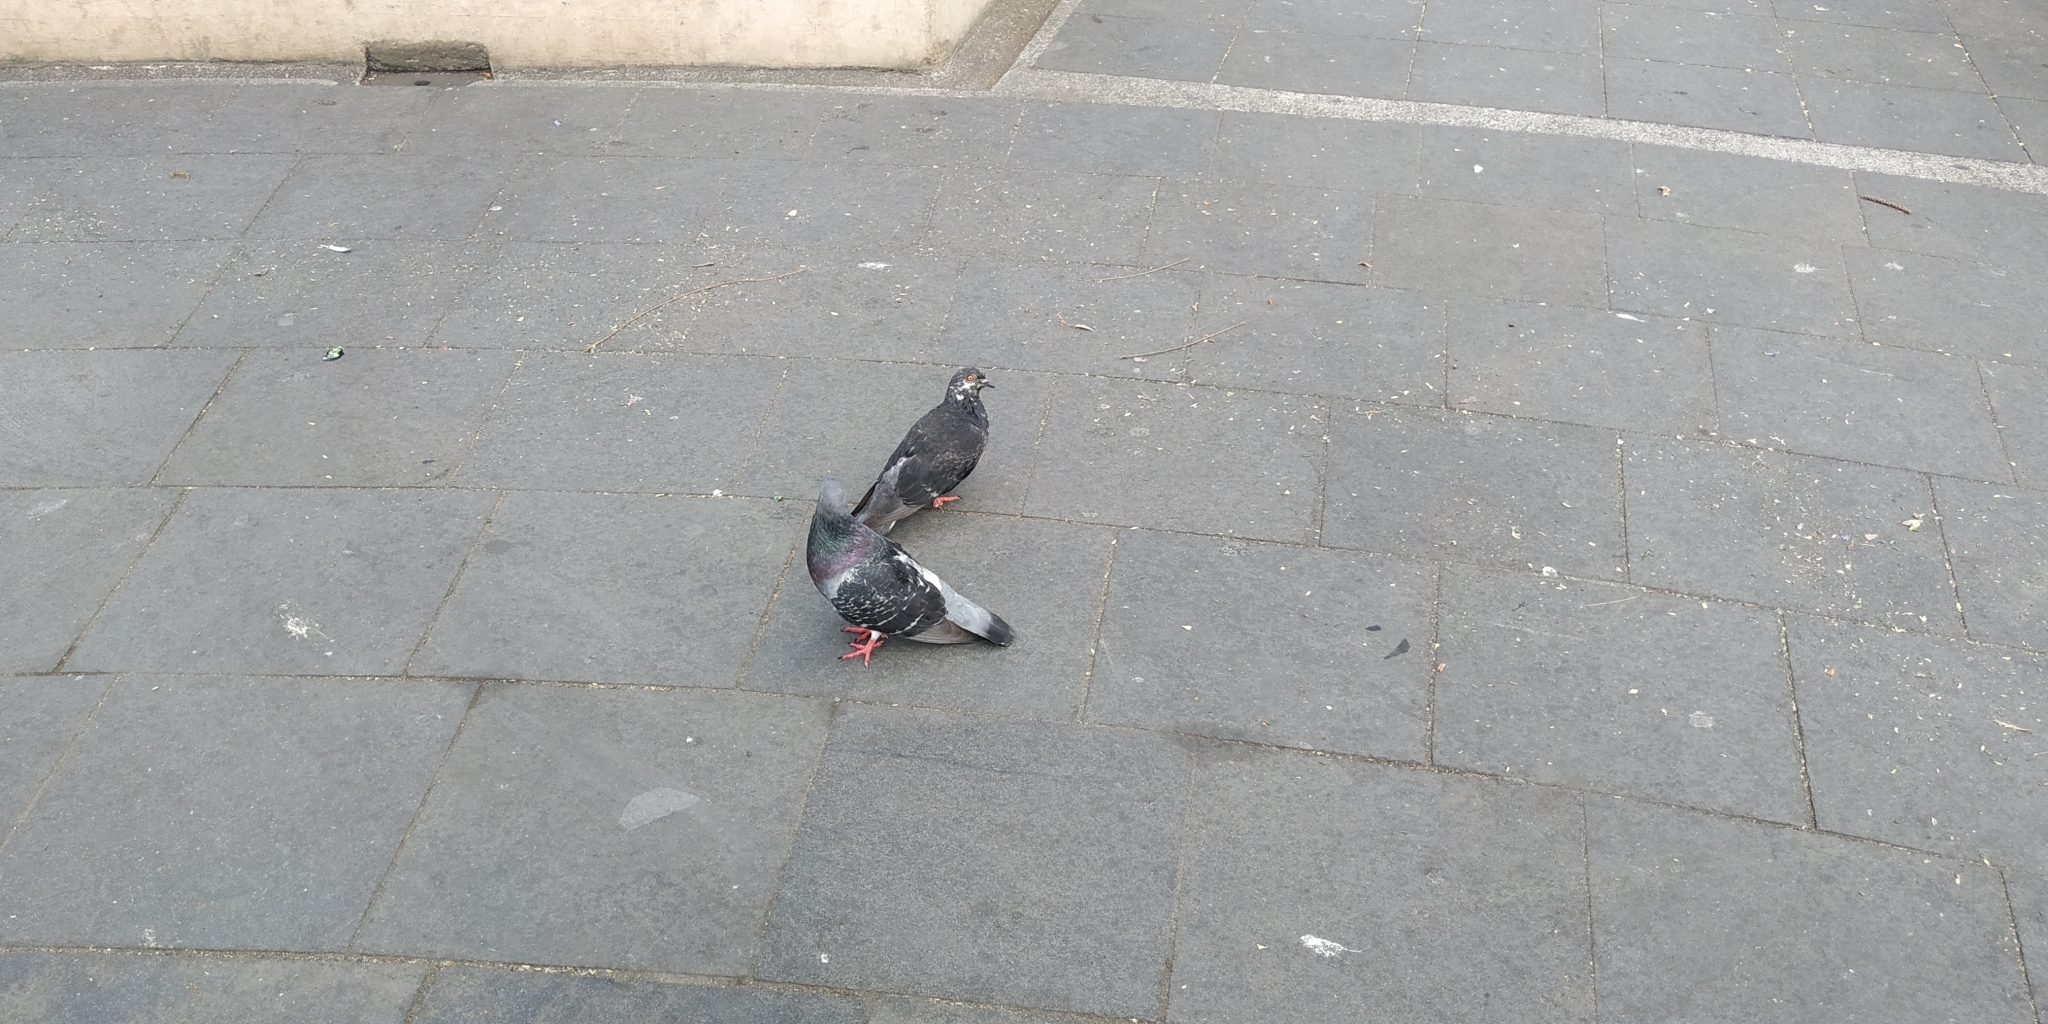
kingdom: Animalia
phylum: Chordata
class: Aves
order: Columbiformes
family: Columbidae
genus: Columba
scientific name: Columba livia
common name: Rock pigeon
